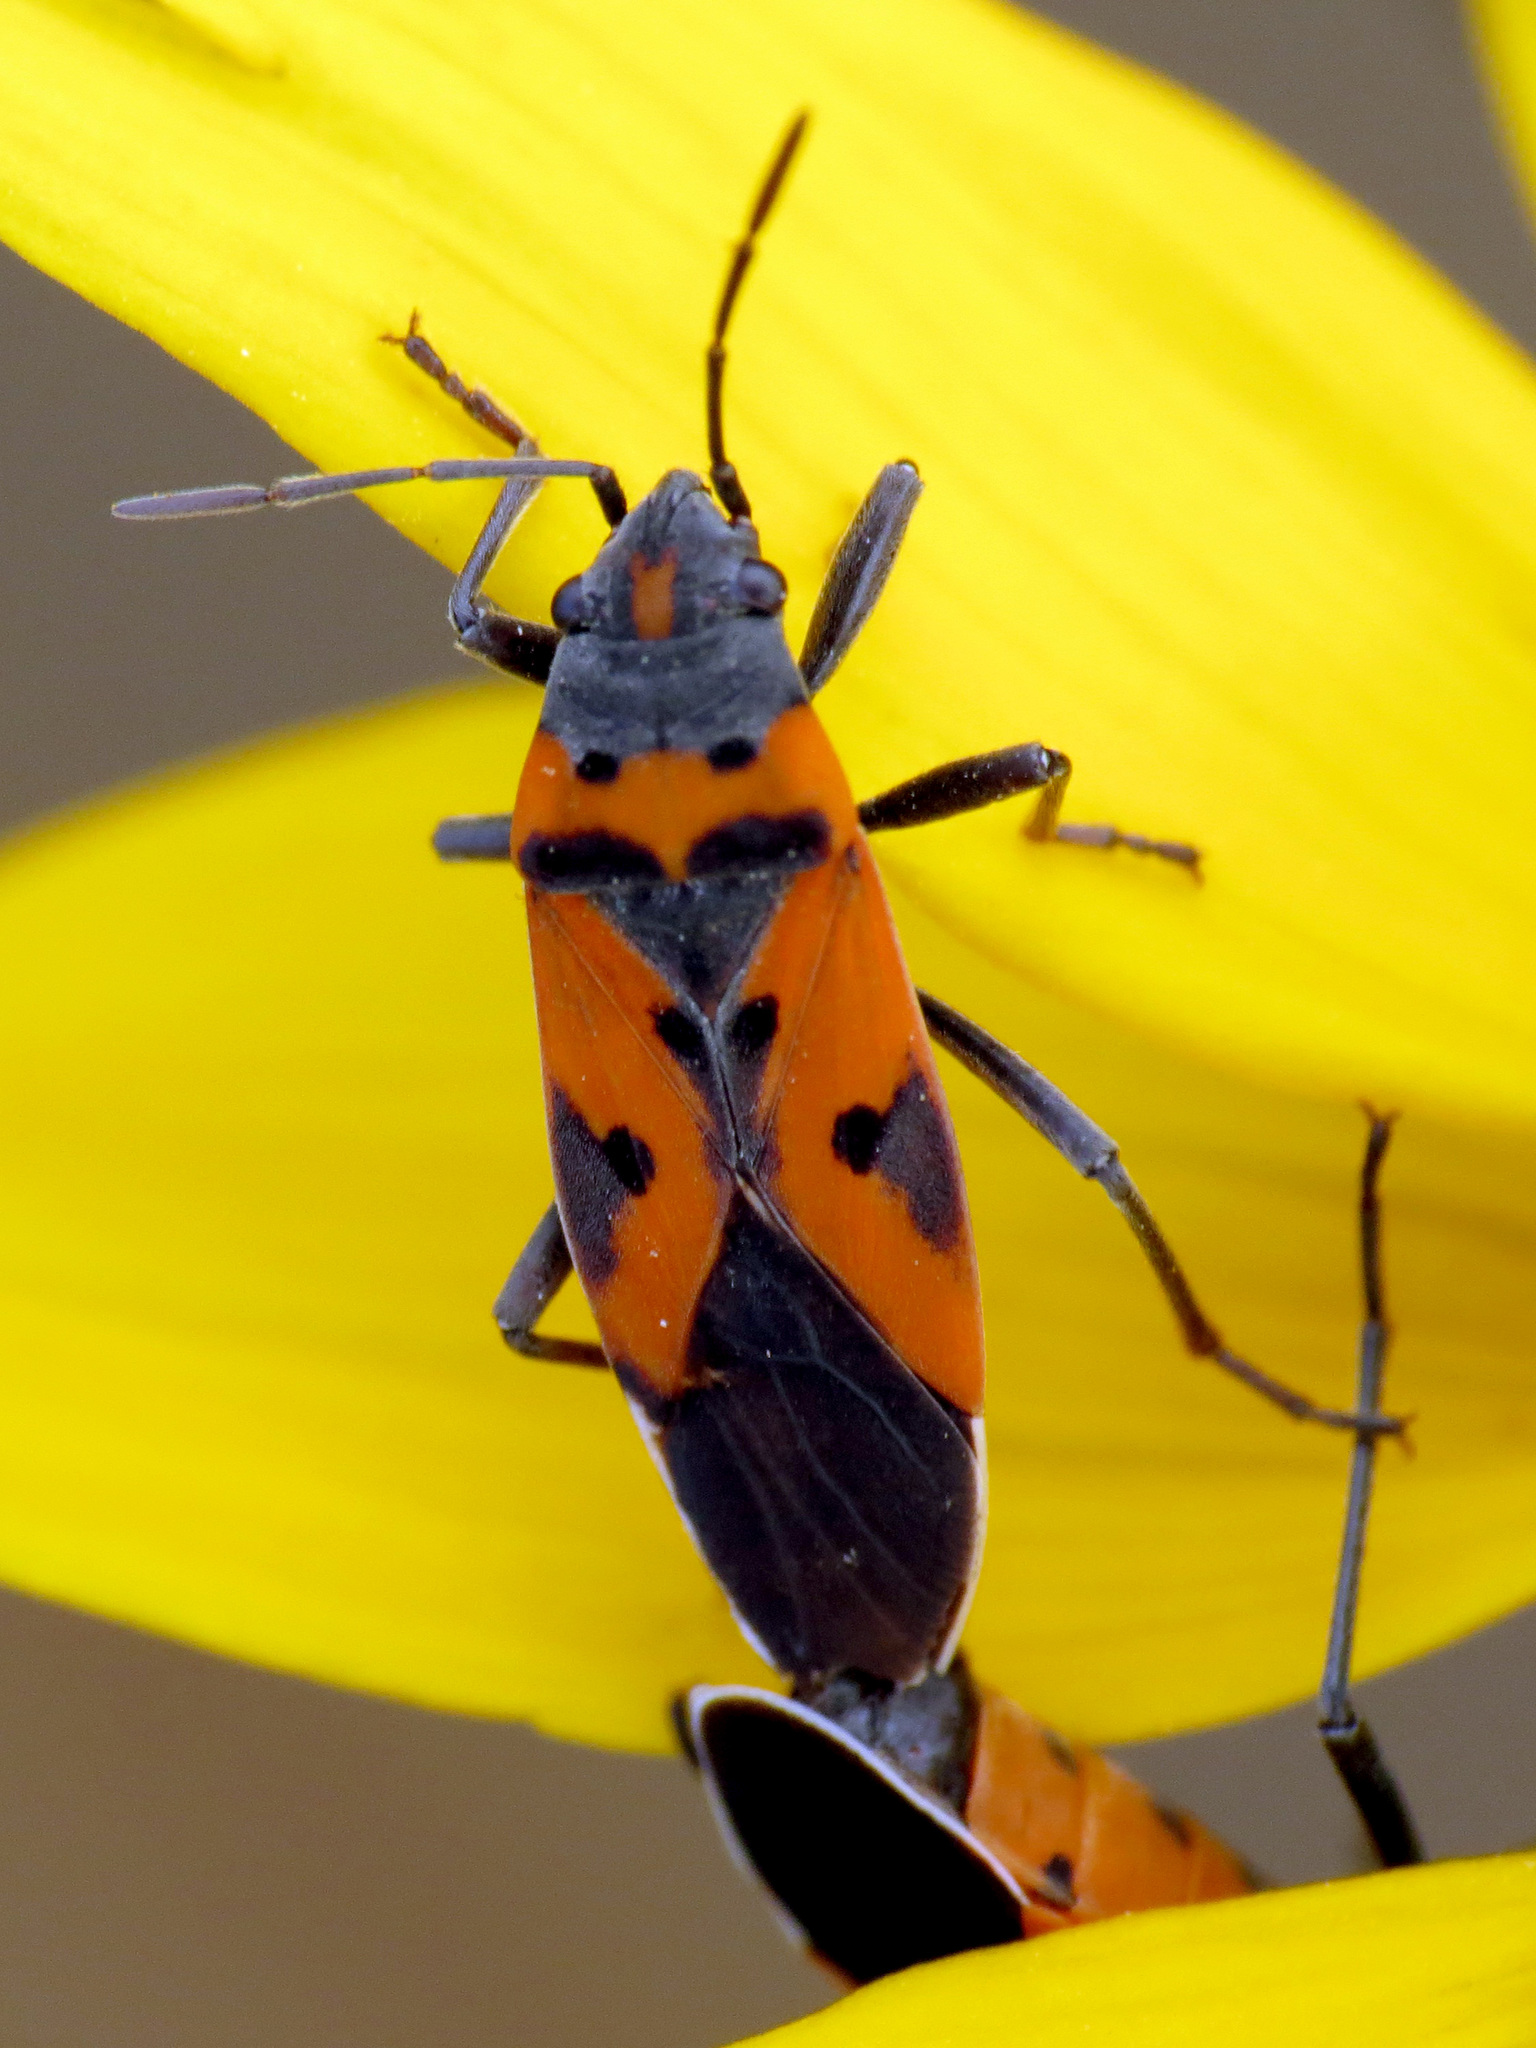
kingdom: Animalia
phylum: Arthropoda
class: Insecta
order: Hemiptera
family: Lygaeidae
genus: Lygaeus
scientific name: Lygaeus reclivatus
